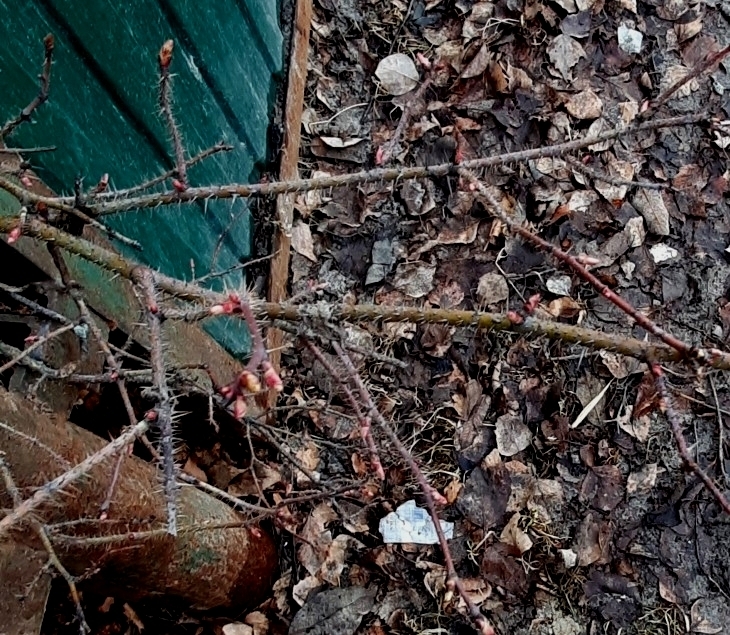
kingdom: Plantae
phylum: Tracheophyta
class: Magnoliopsida
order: Rosales
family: Rosaceae
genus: Rosa
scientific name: Rosa acicularis
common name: Prickly rose
